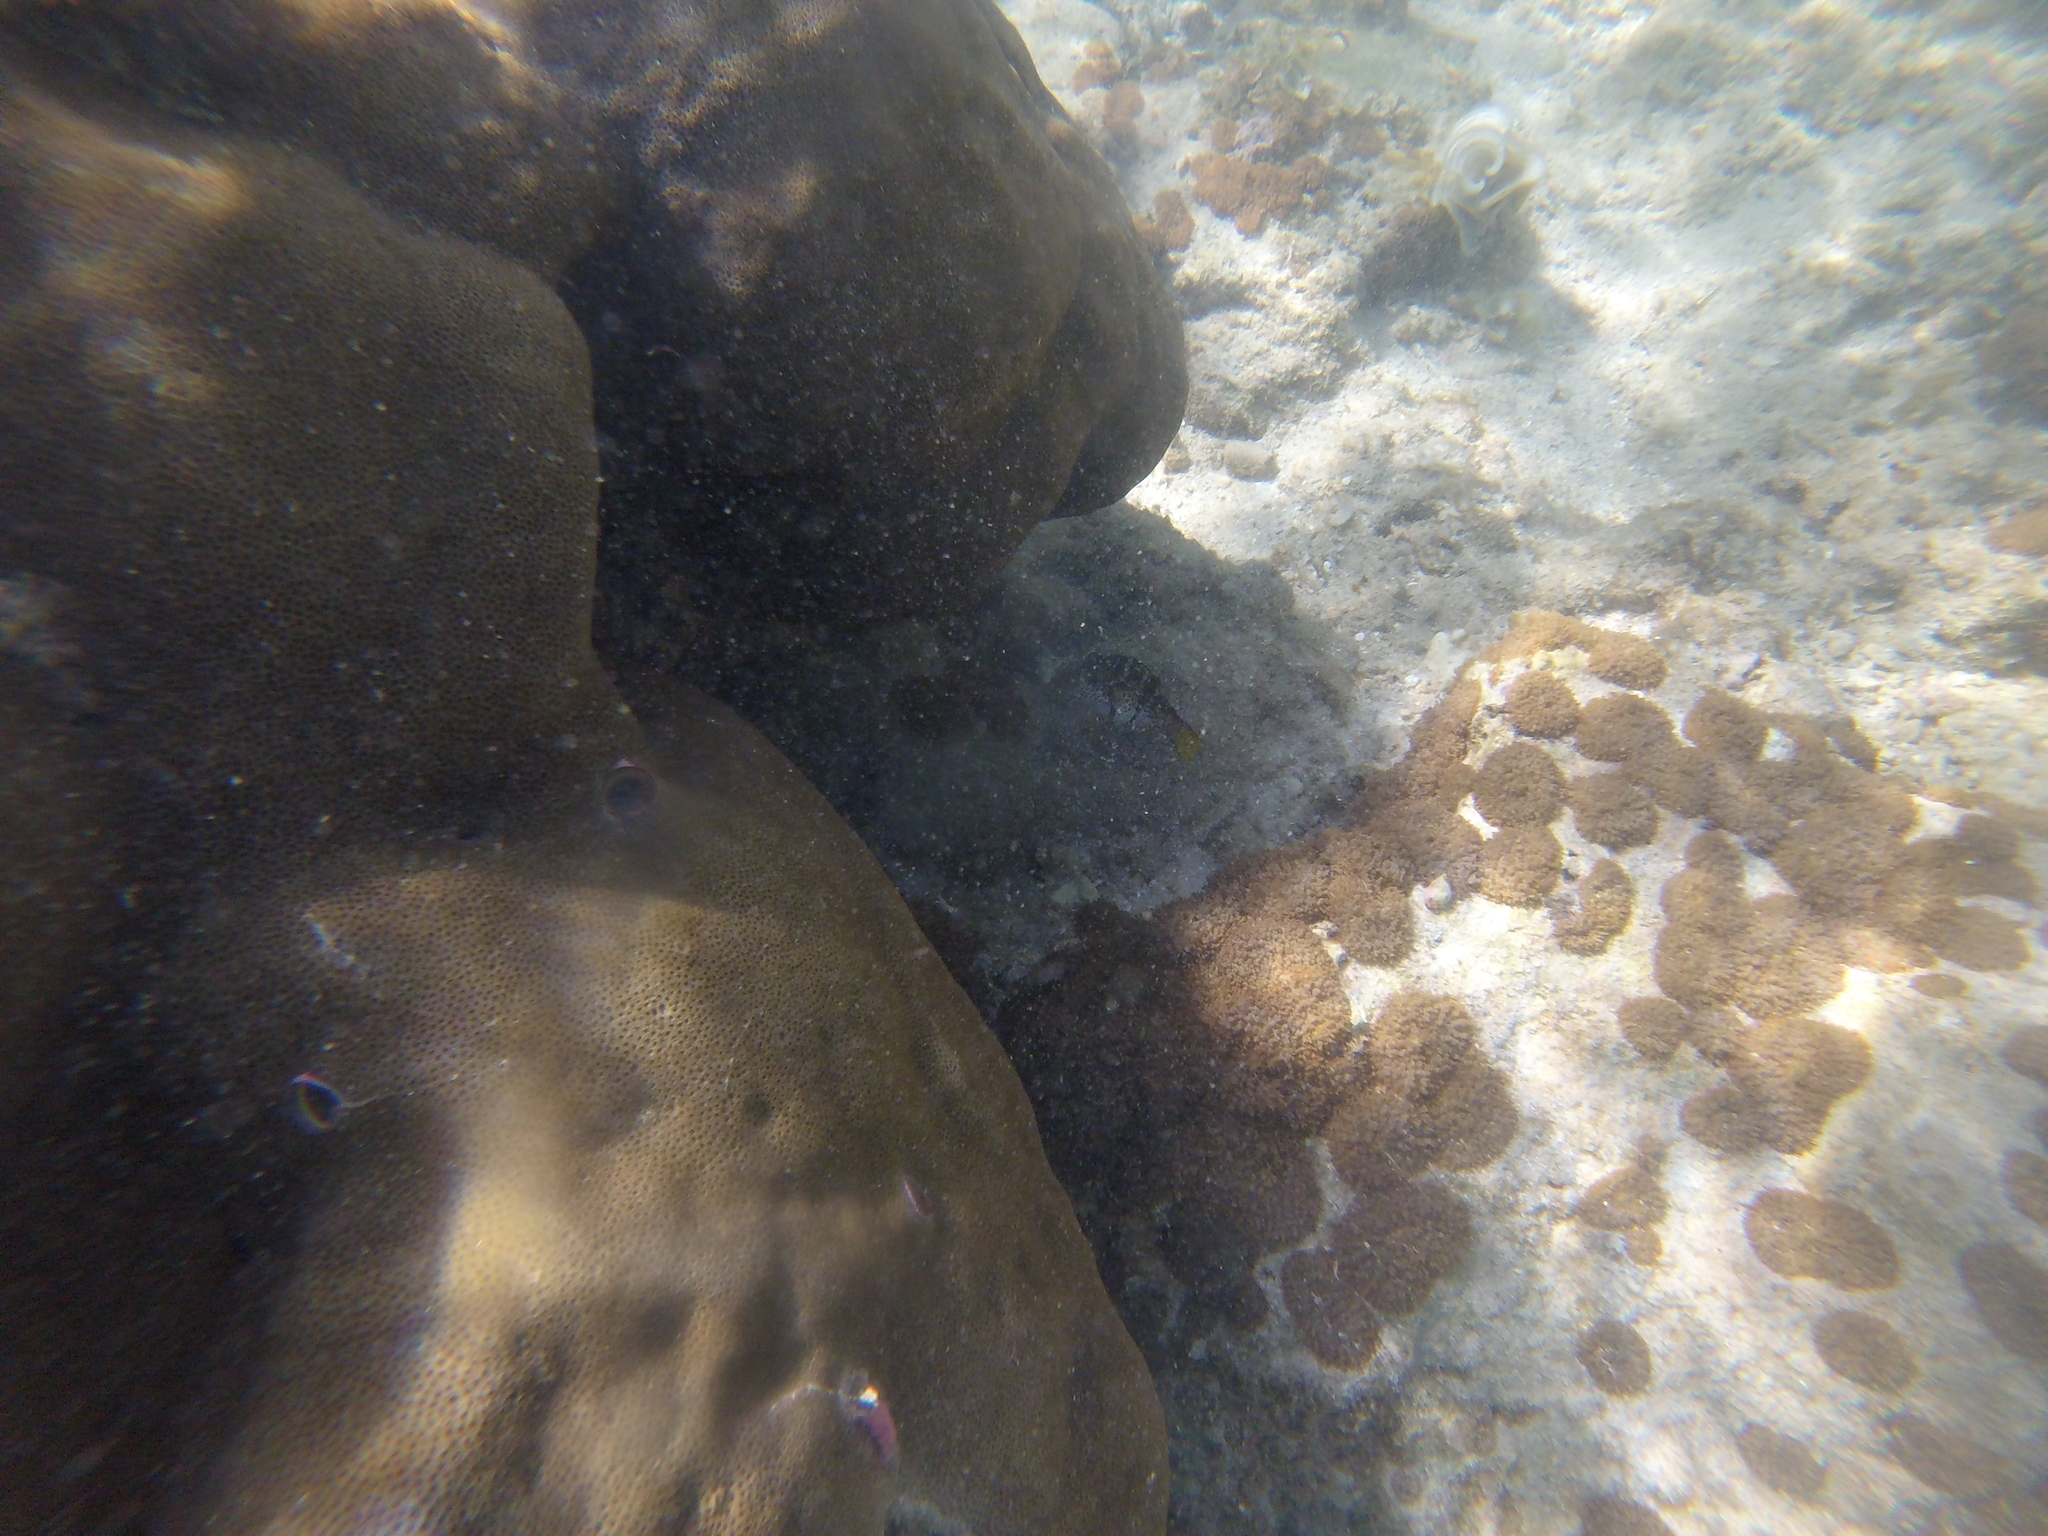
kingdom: Animalia
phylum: Chordata
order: Tetraodontiformes
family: Tetraodontidae
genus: Canthigaster
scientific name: Canthigaster valentini
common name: Banded toby
